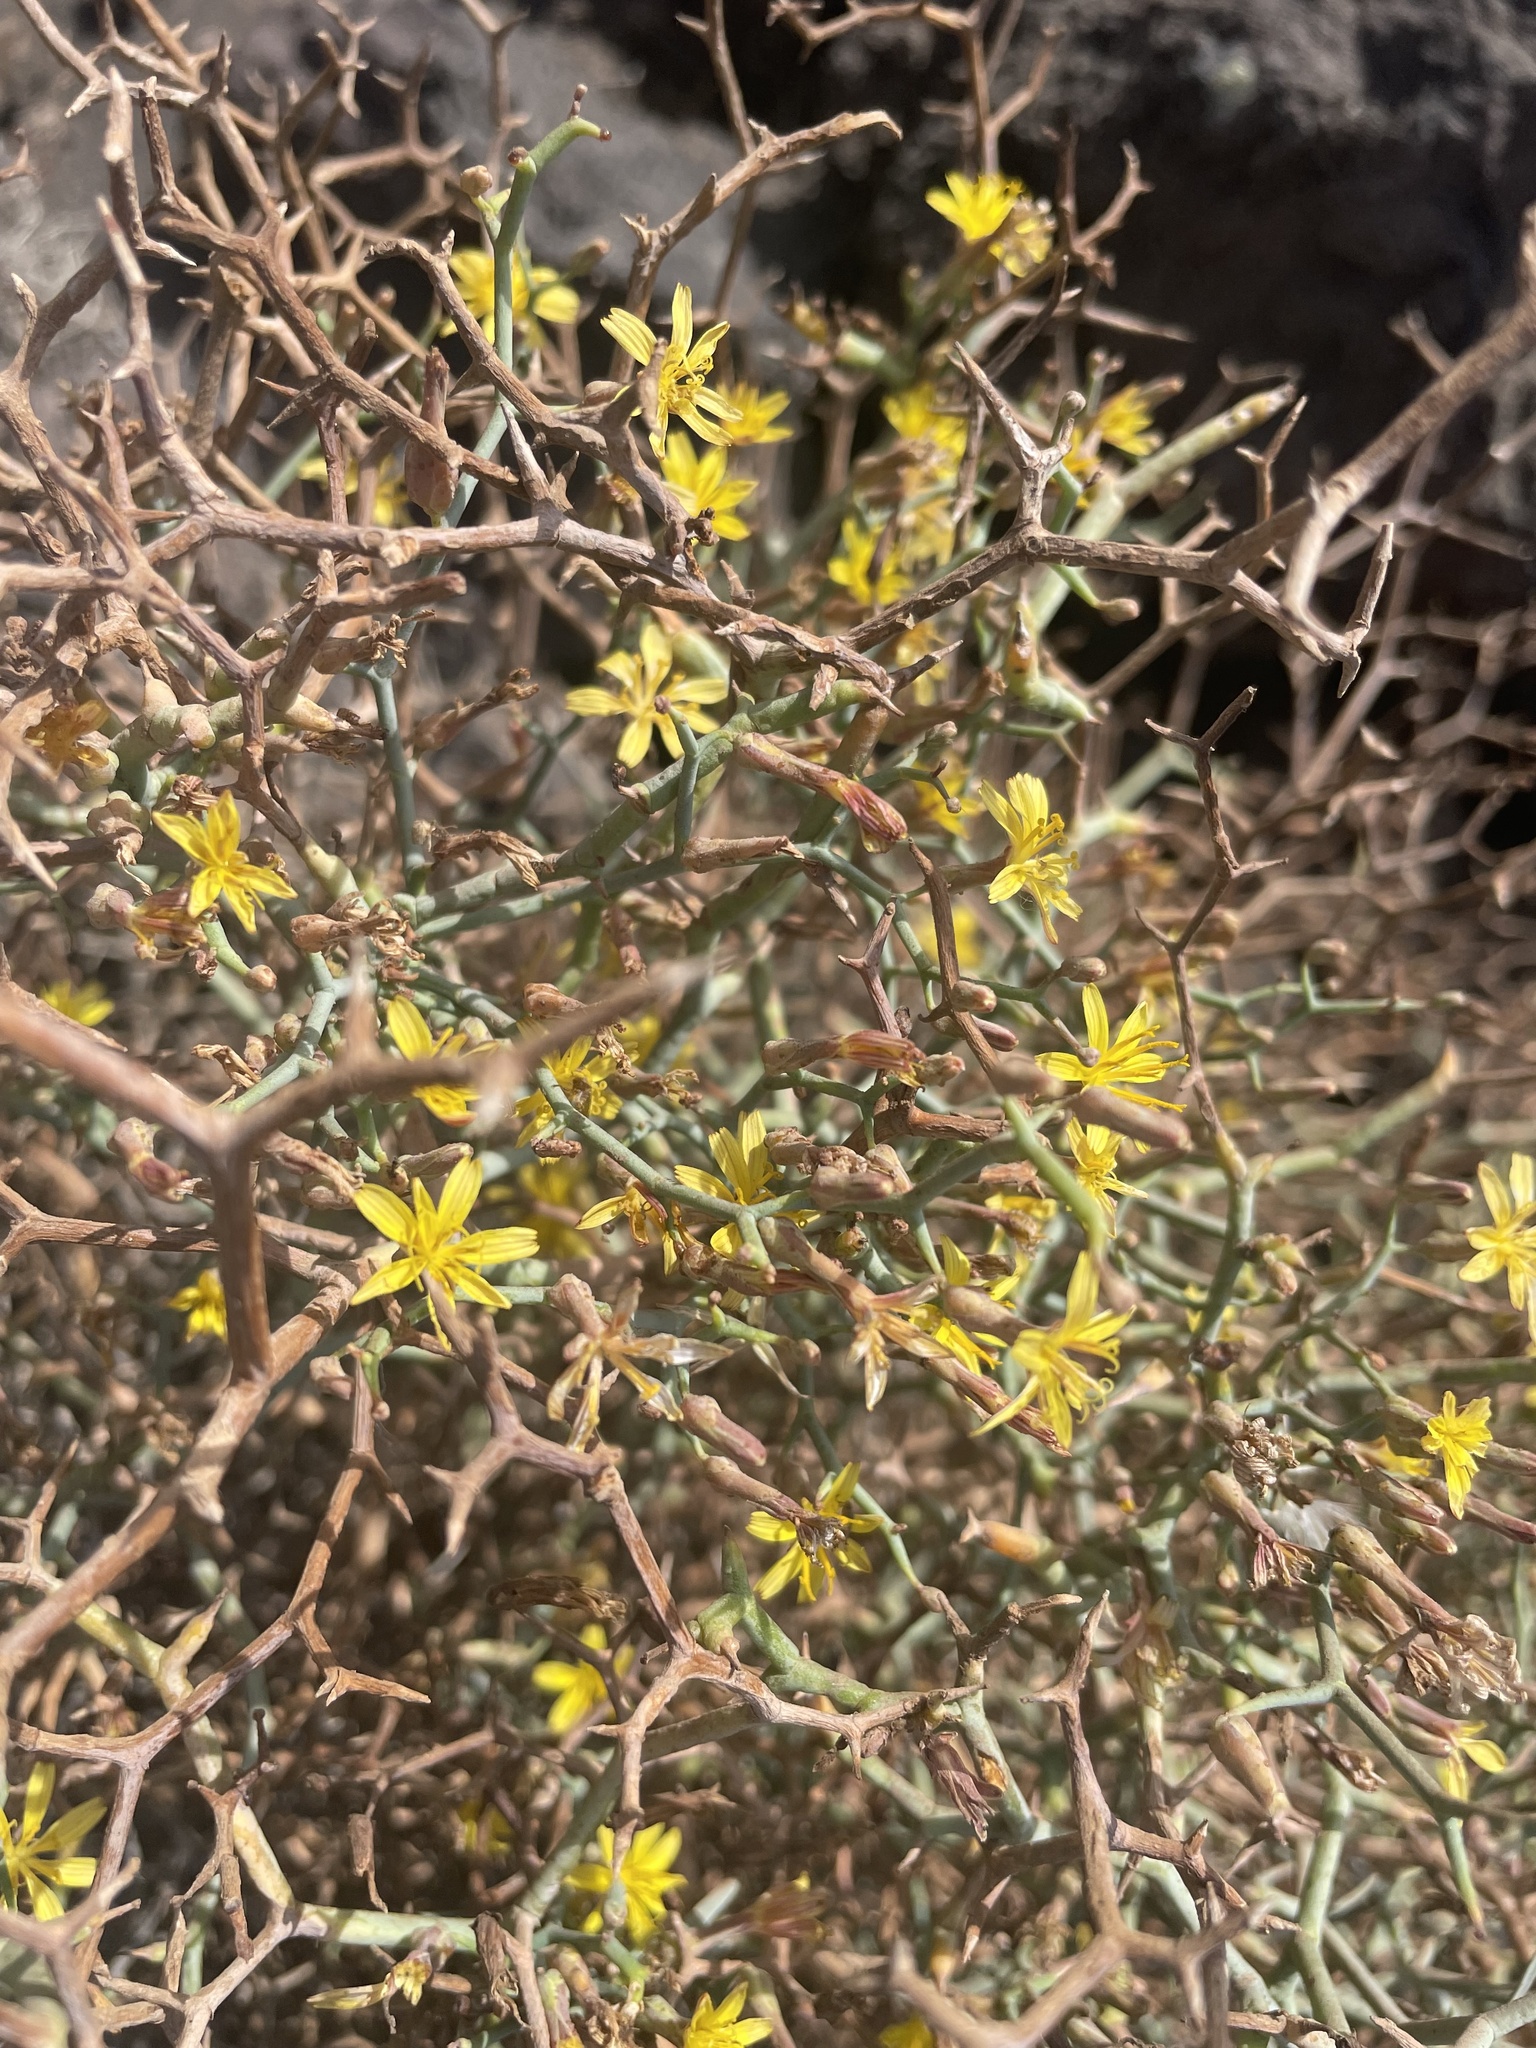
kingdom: Plantae
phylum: Tracheophyta
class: Magnoliopsida
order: Asterales
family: Asteraceae
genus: Launaea
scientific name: Launaea arborescens
